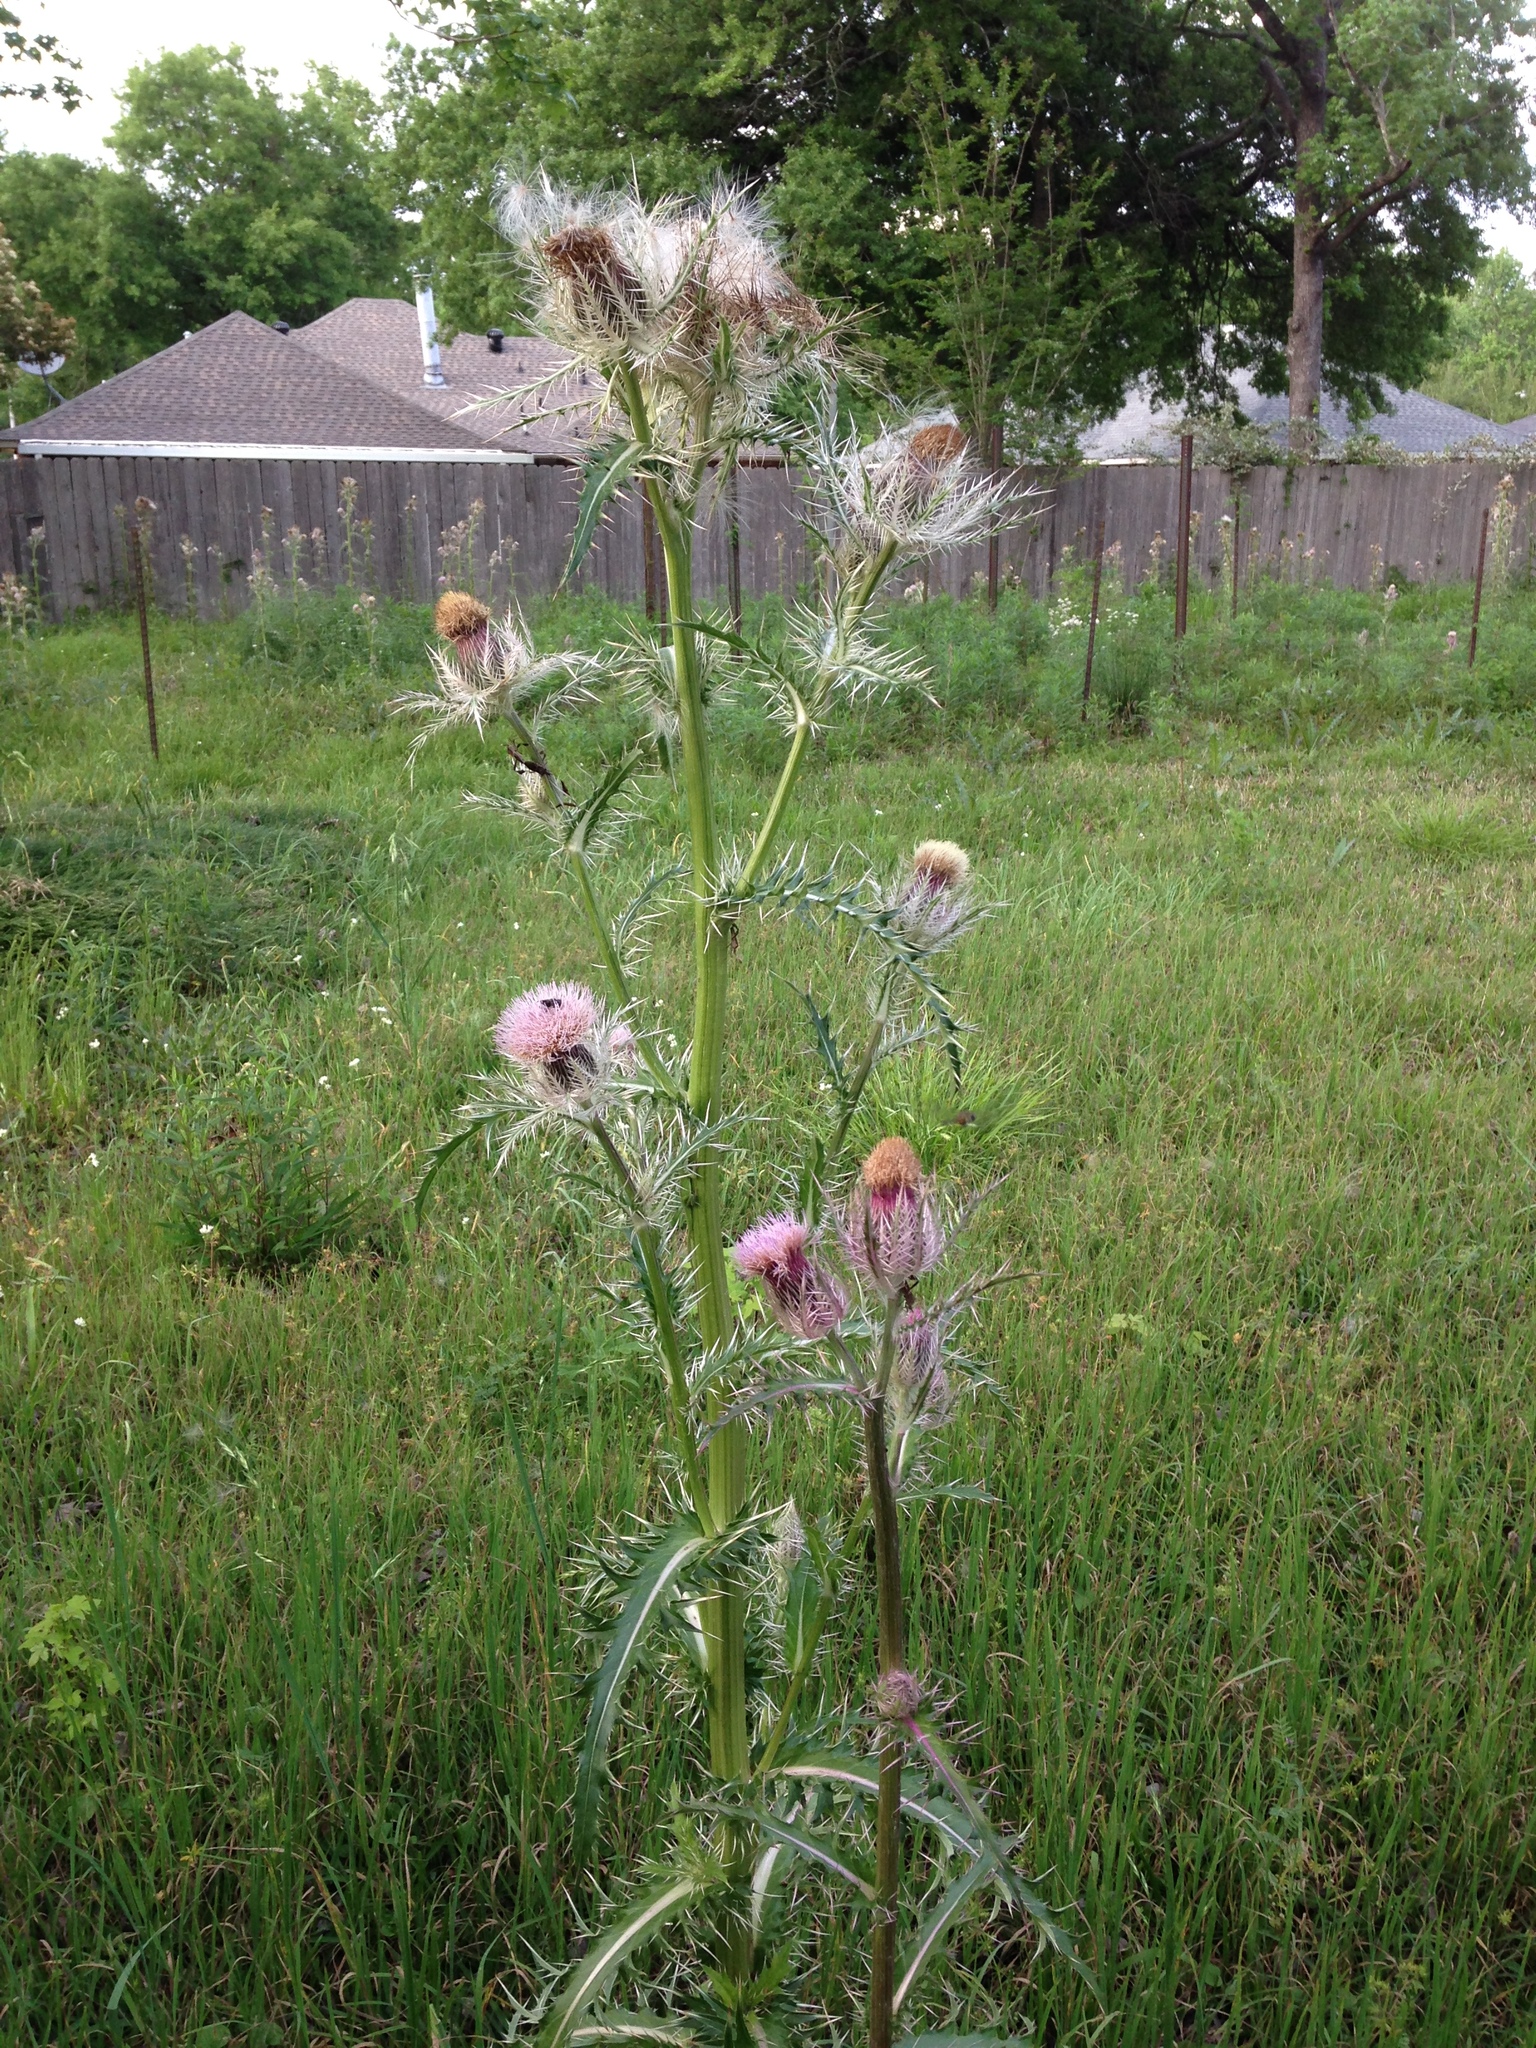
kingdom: Plantae
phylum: Tracheophyta
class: Magnoliopsida
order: Asterales
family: Asteraceae
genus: Cirsium
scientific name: Cirsium horridulum
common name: Bristly thistle
